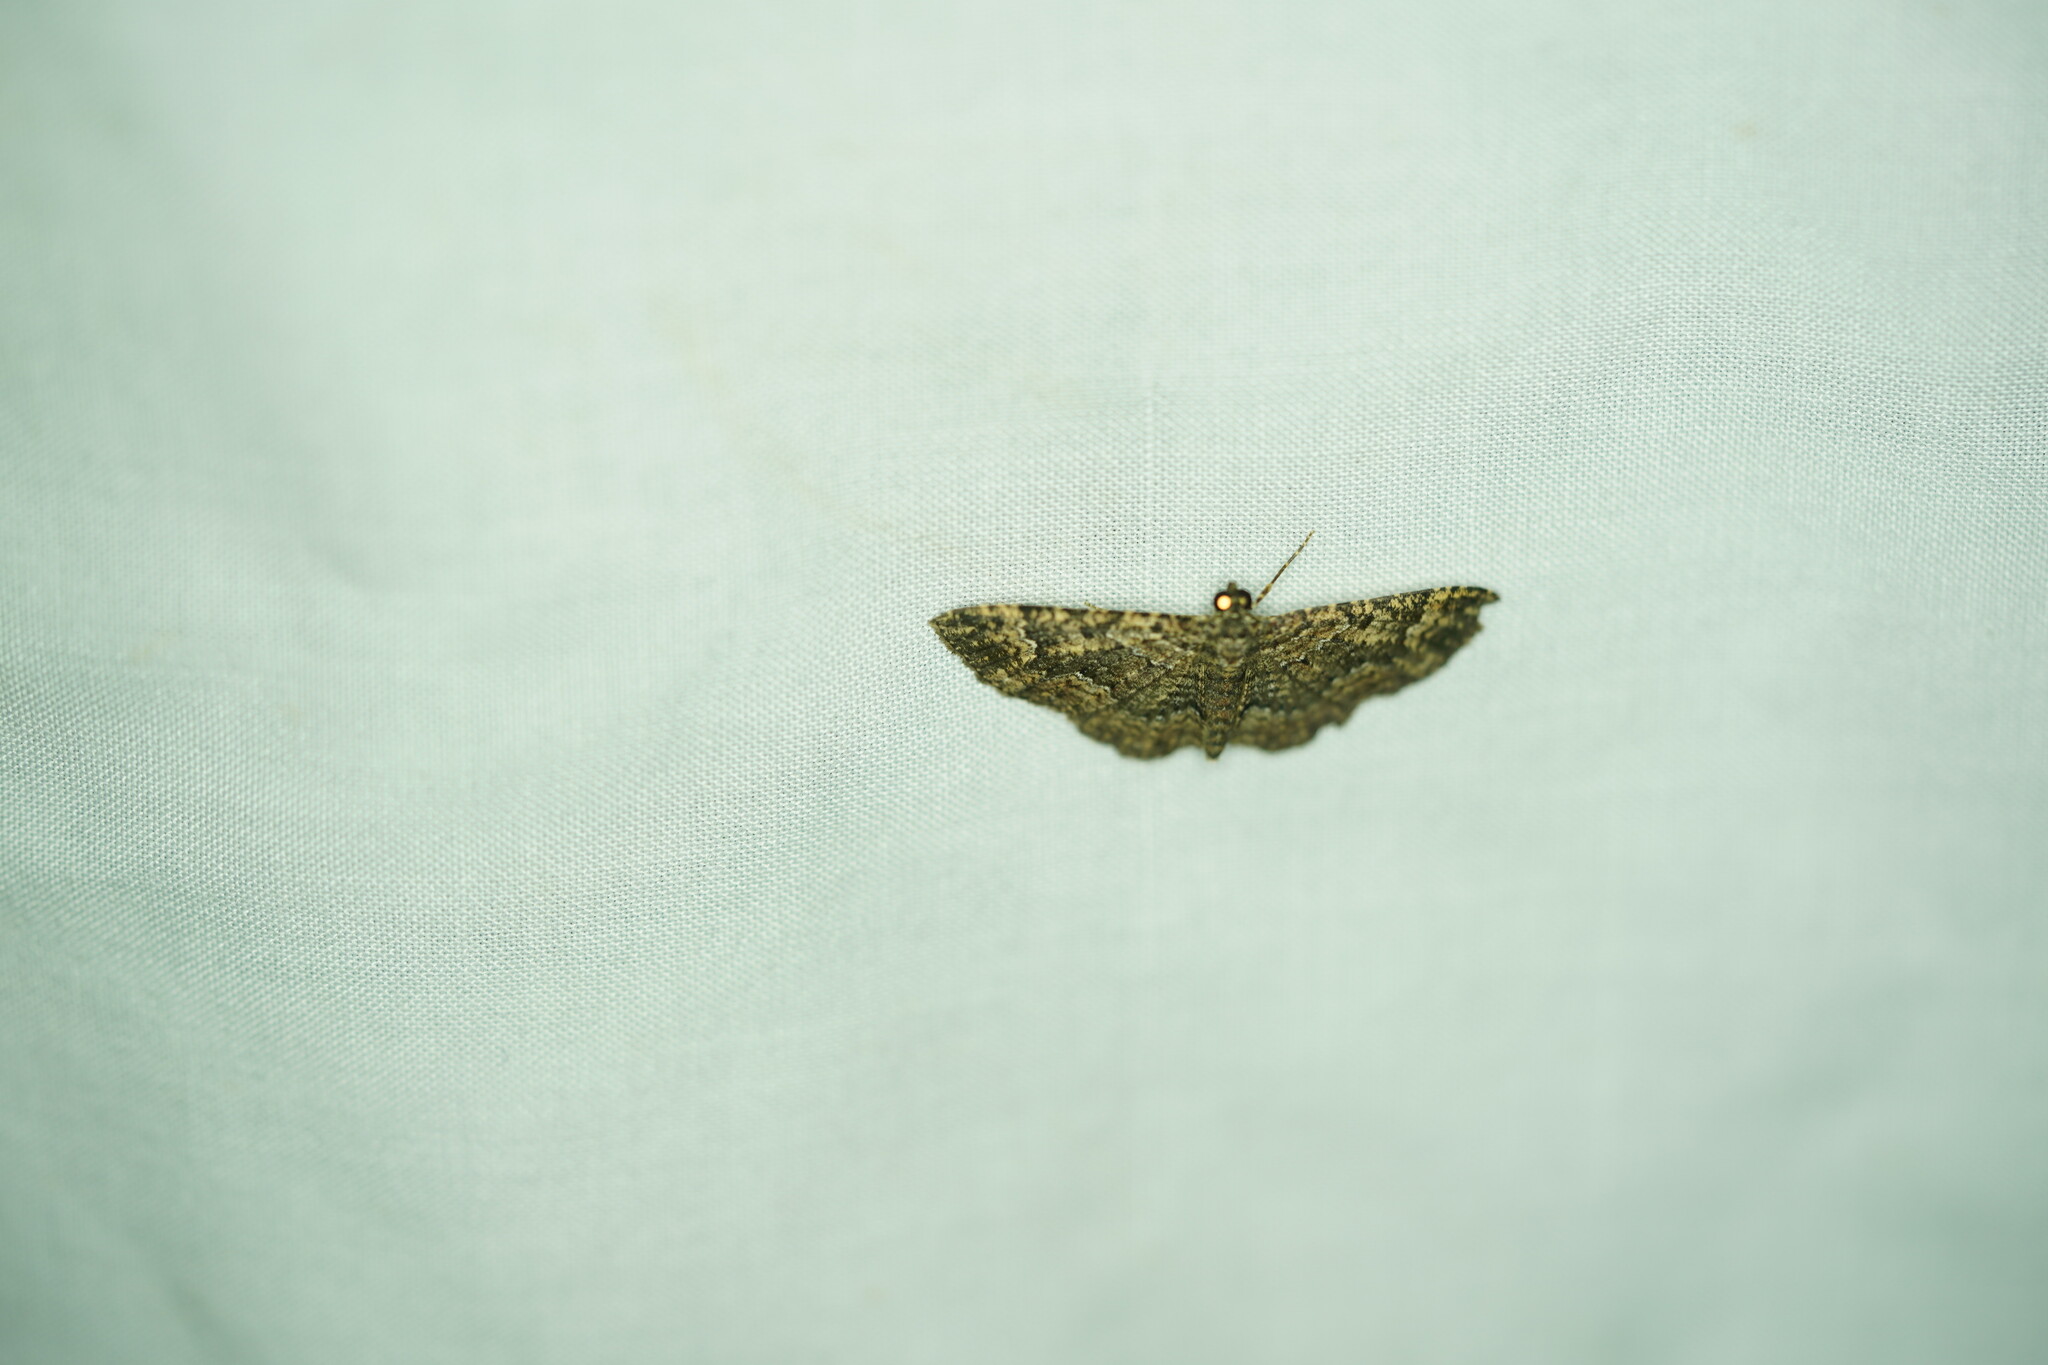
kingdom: Animalia
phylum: Arthropoda
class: Insecta
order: Lepidoptera
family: Geometridae
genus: Disclisioprocta
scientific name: Disclisioprocta stellata
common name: Somber carpet
